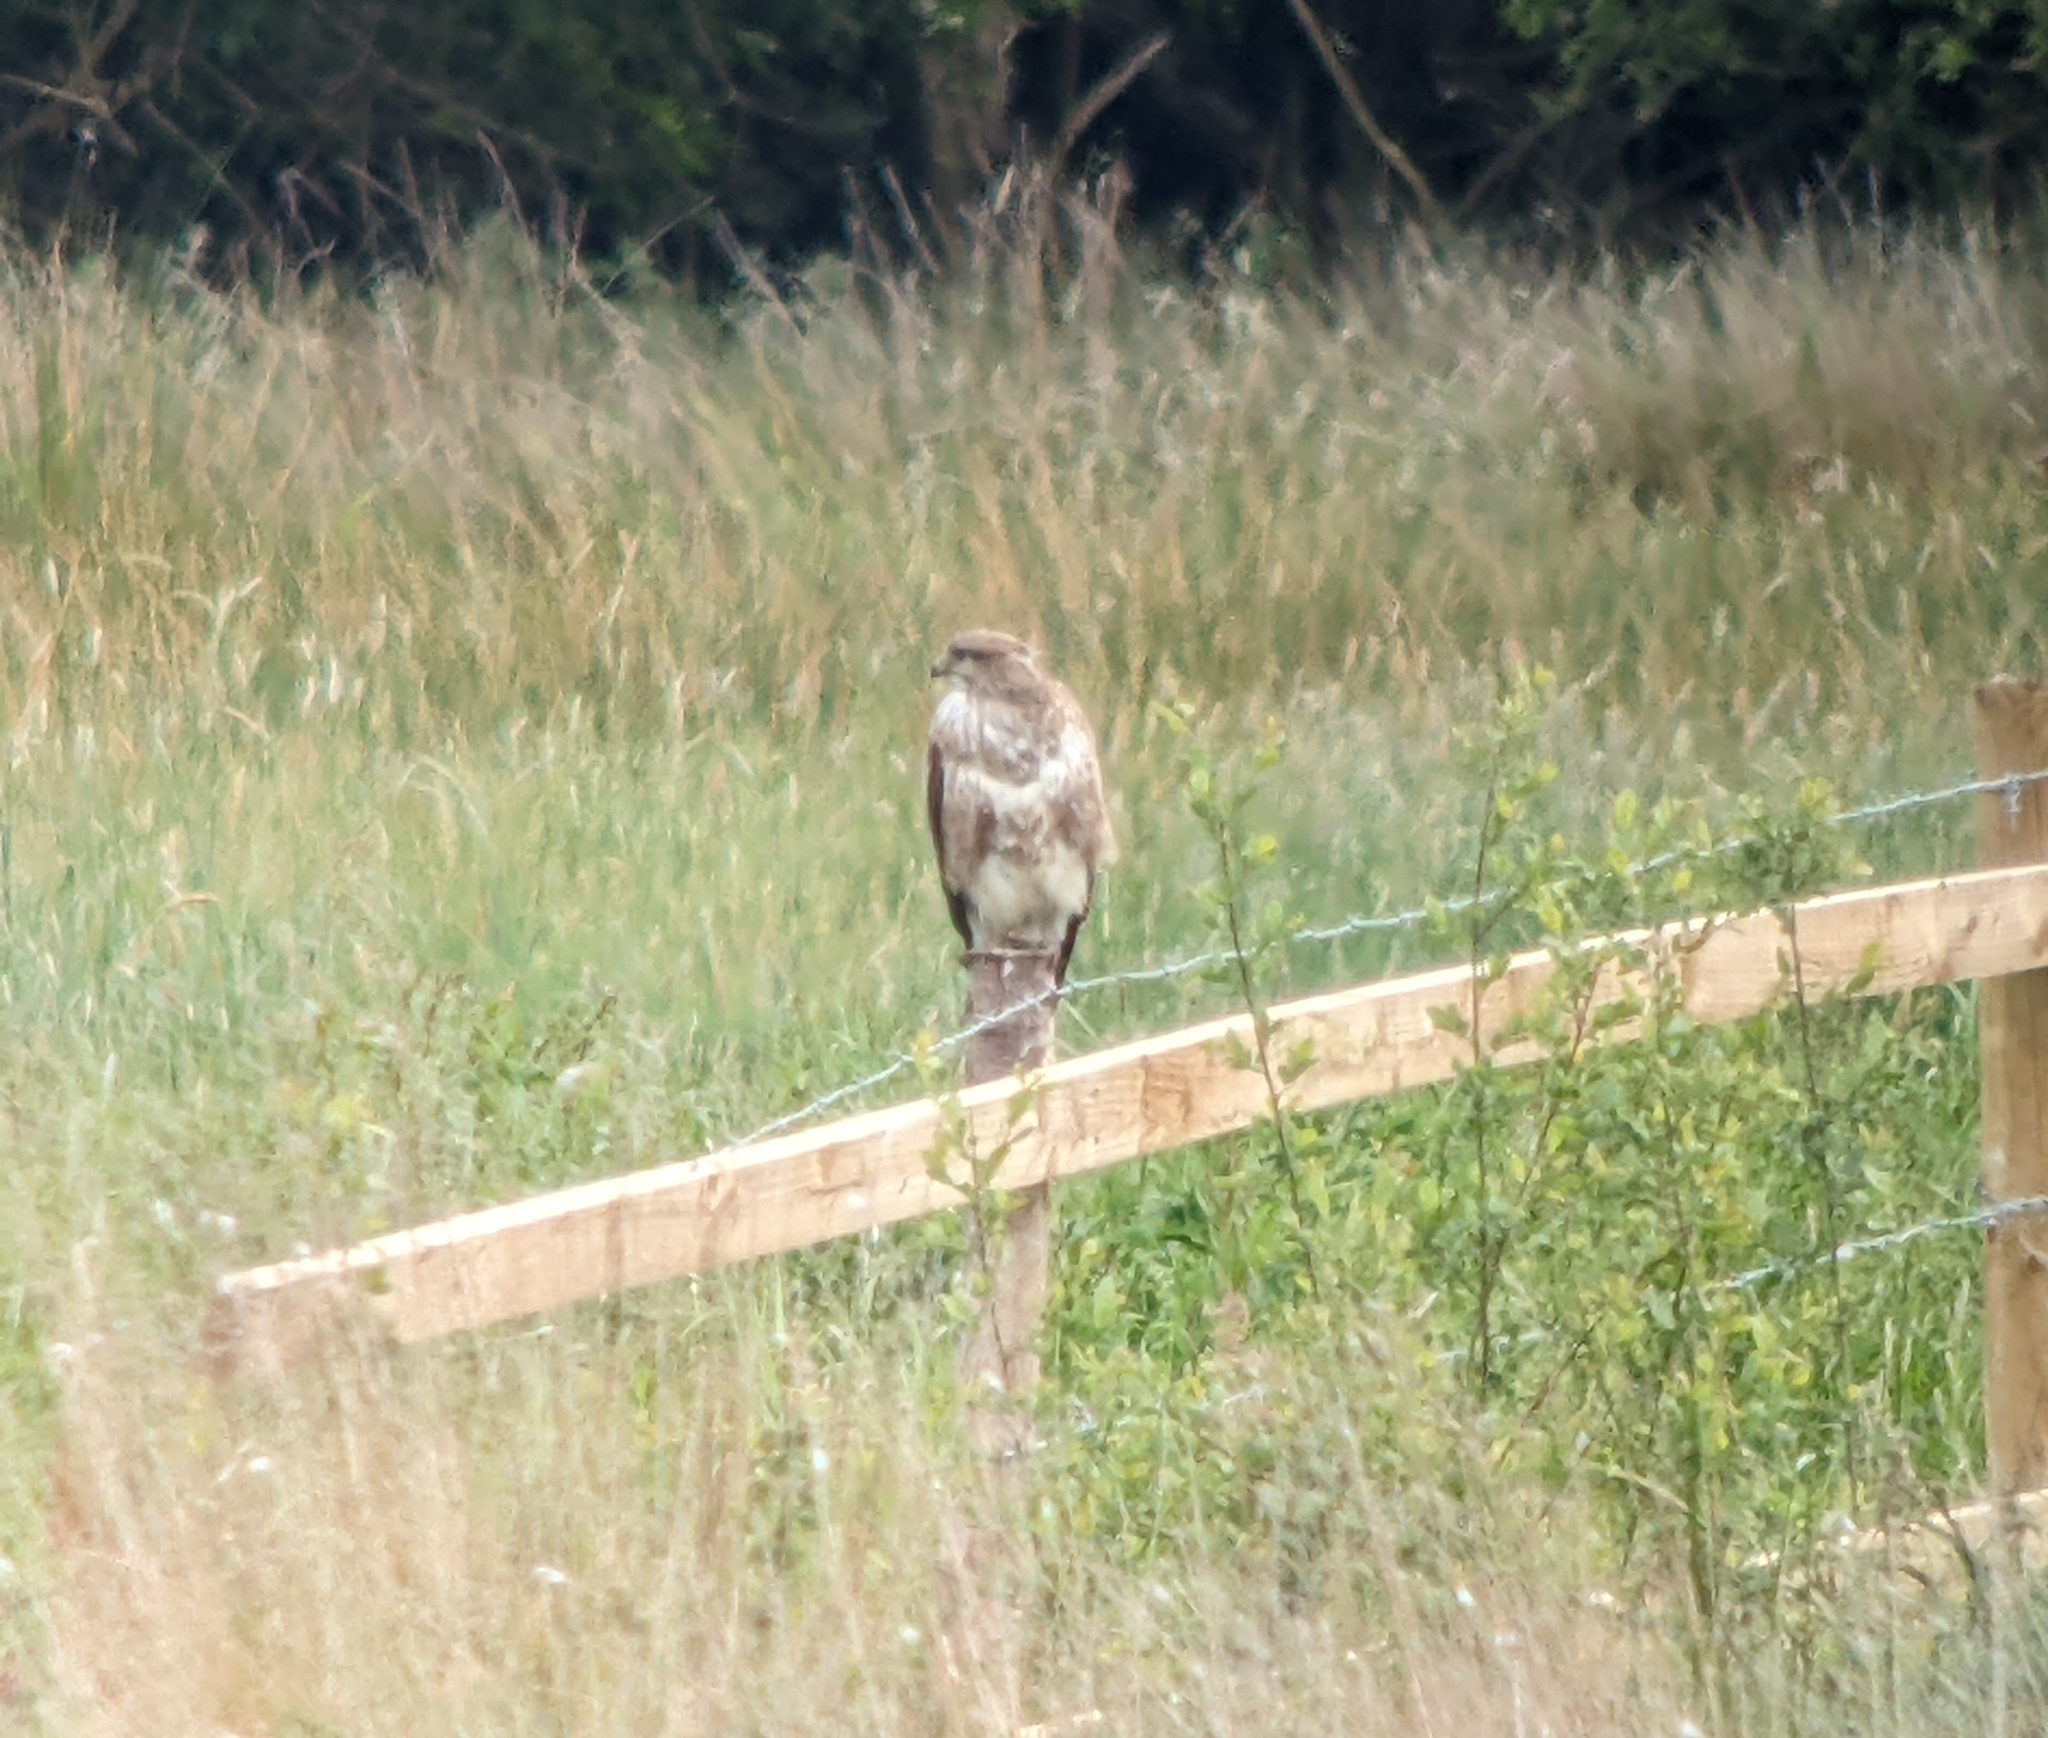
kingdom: Animalia
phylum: Chordata
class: Aves
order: Accipitriformes
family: Accipitridae
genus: Buteo
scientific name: Buteo buteo
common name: Common buzzard
